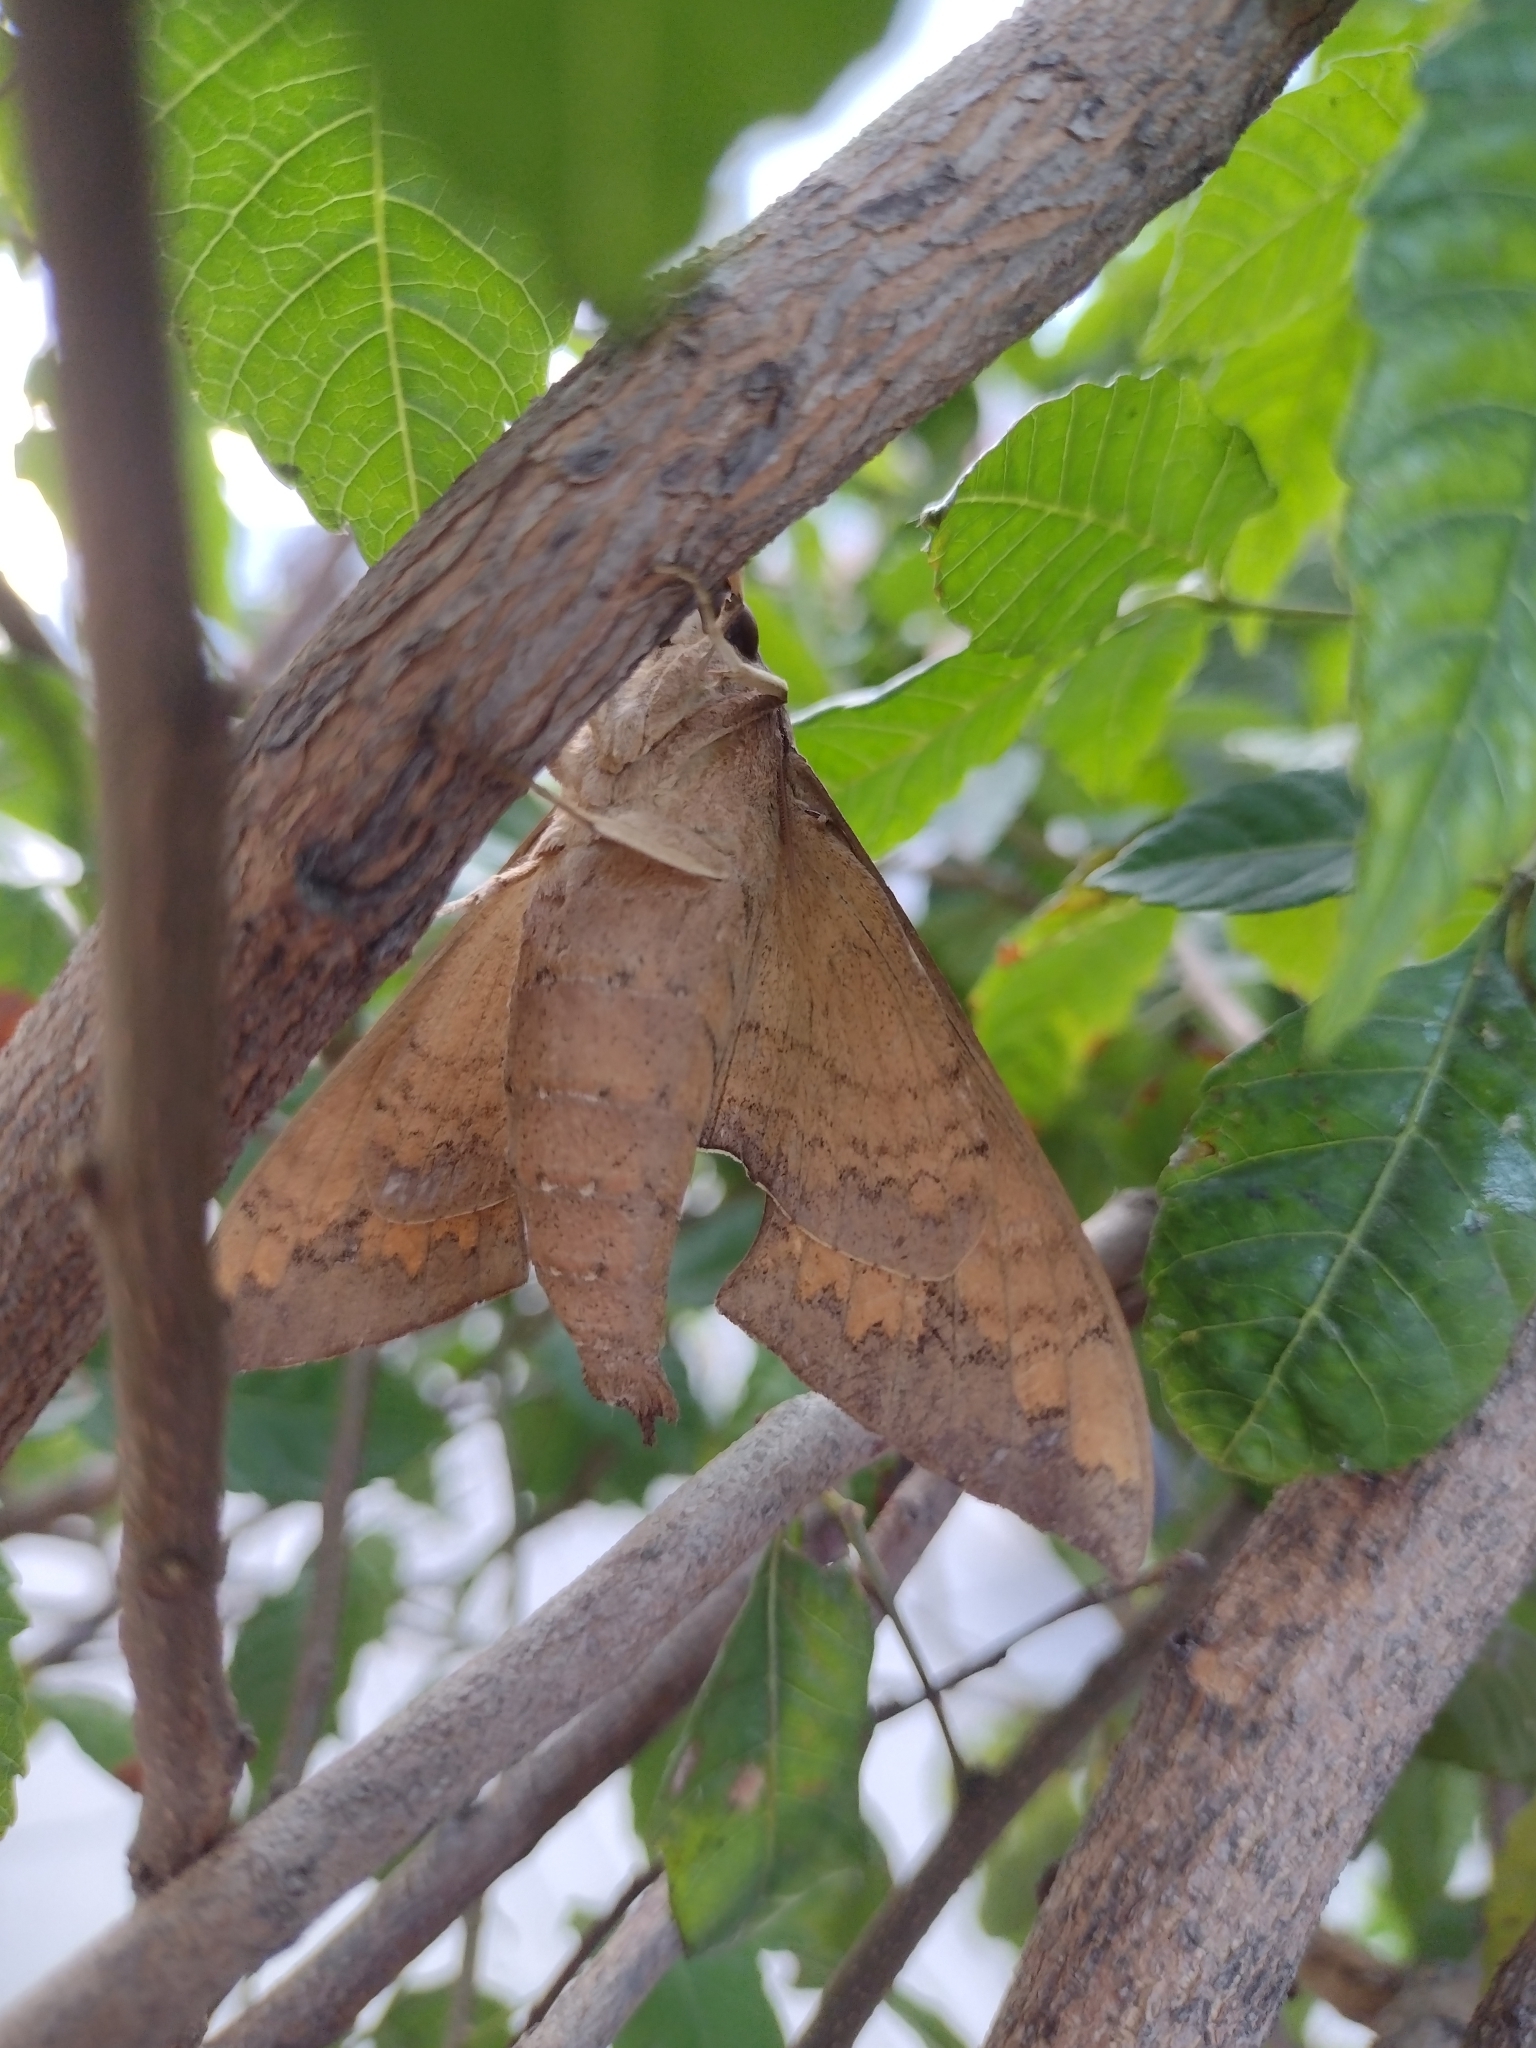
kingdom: Animalia
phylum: Arthropoda
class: Insecta
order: Lepidoptera
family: Sphingidae
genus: Pachylioides
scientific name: Pachylioides resumens
